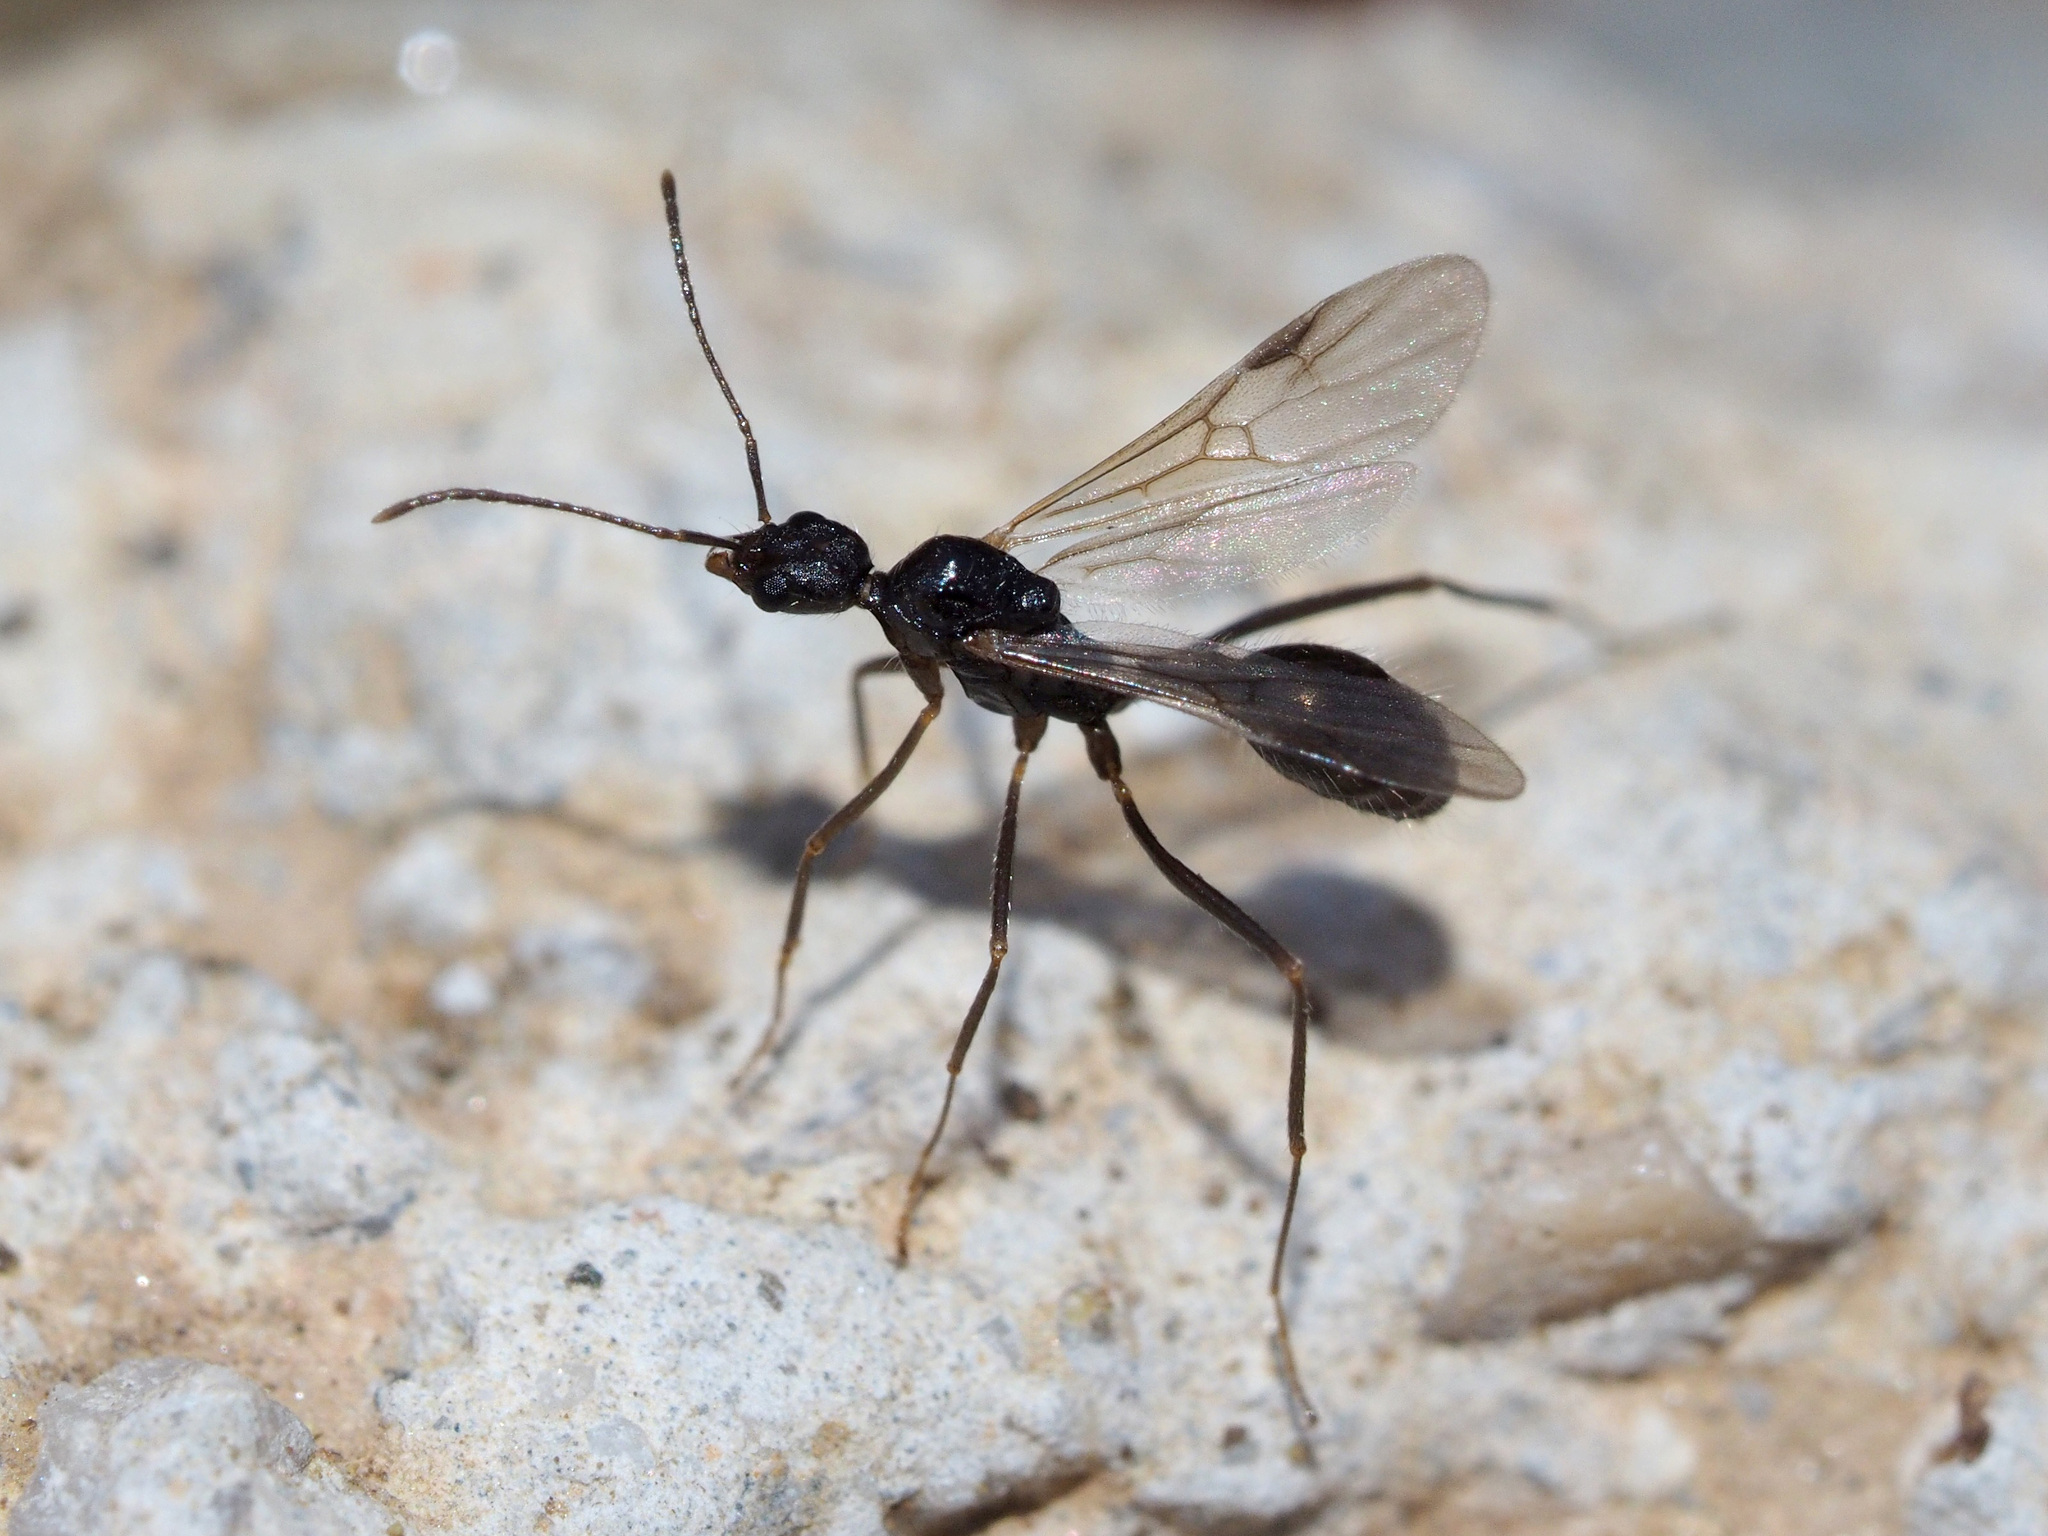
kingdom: Animalia
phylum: Arthropoda
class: Insecta
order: Hymenoptera
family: Formicidae
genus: Aphaenogaster
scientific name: Aphaenogaster semipolita
